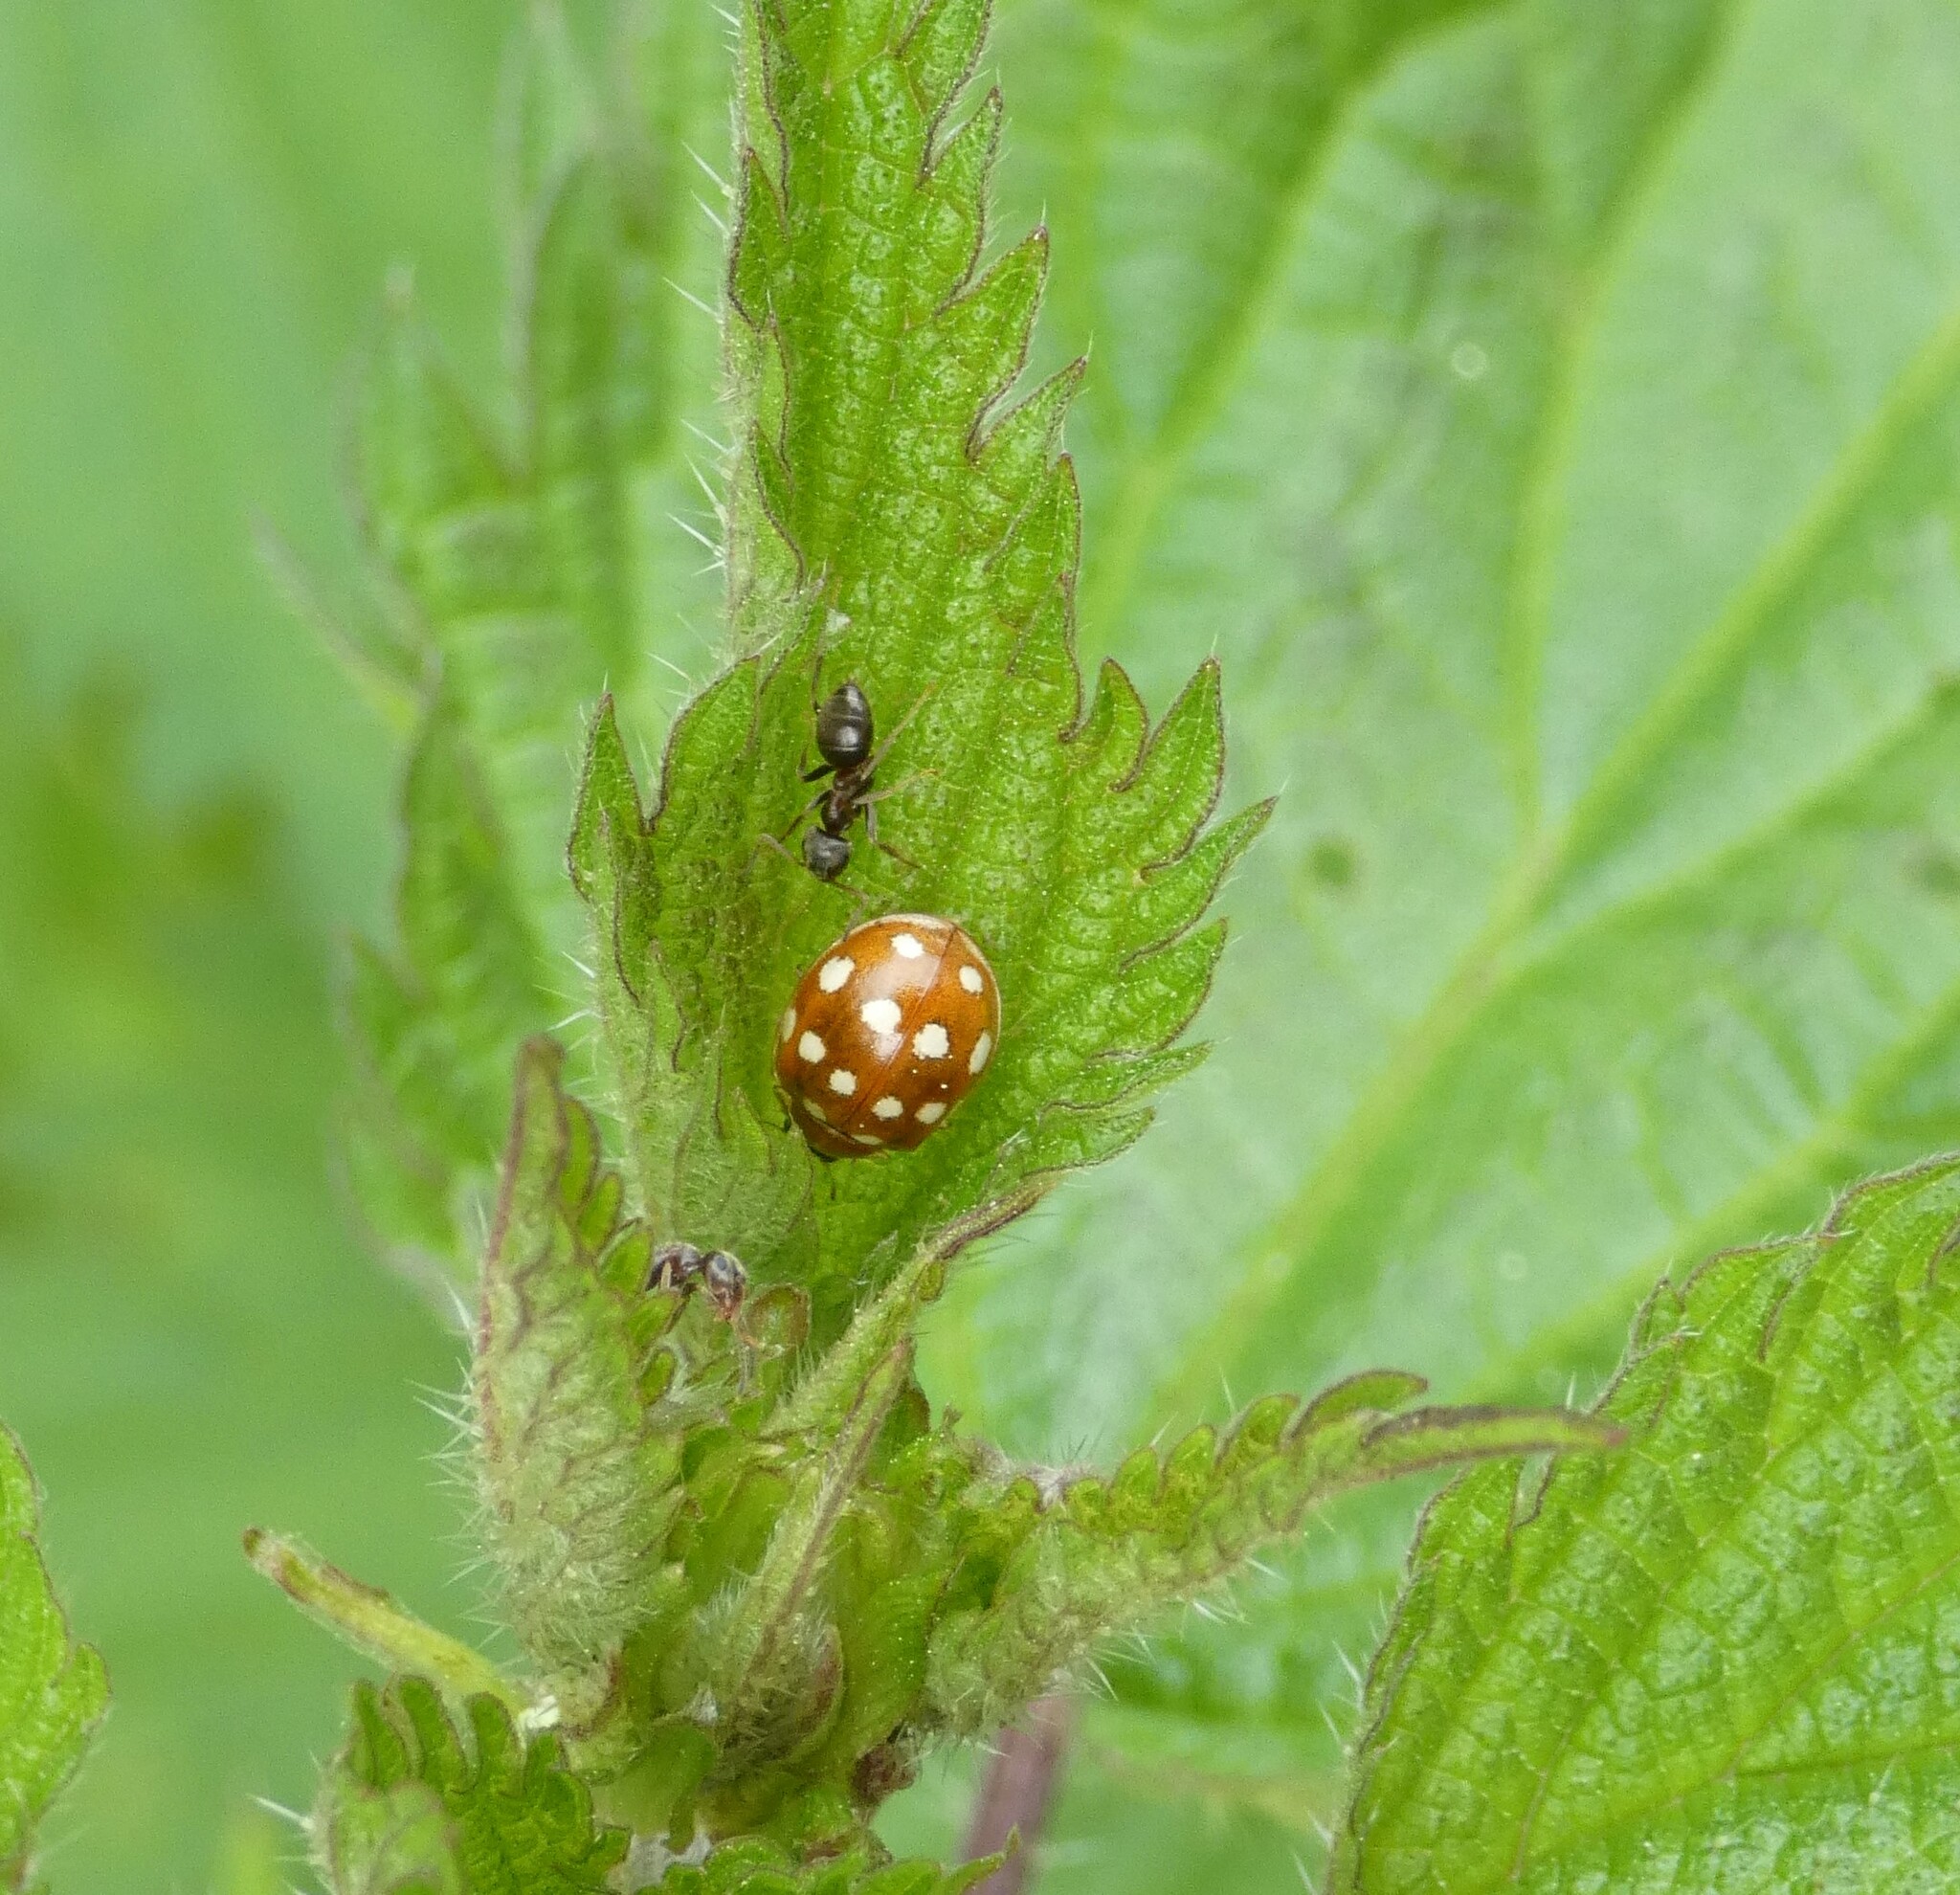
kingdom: Animalia
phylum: Arthropoda
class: Insecta
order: Coleoptera
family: Coccinellidae
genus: Calvia
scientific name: Calvia quatuordecimguttata
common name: Cream-spot ladybird
